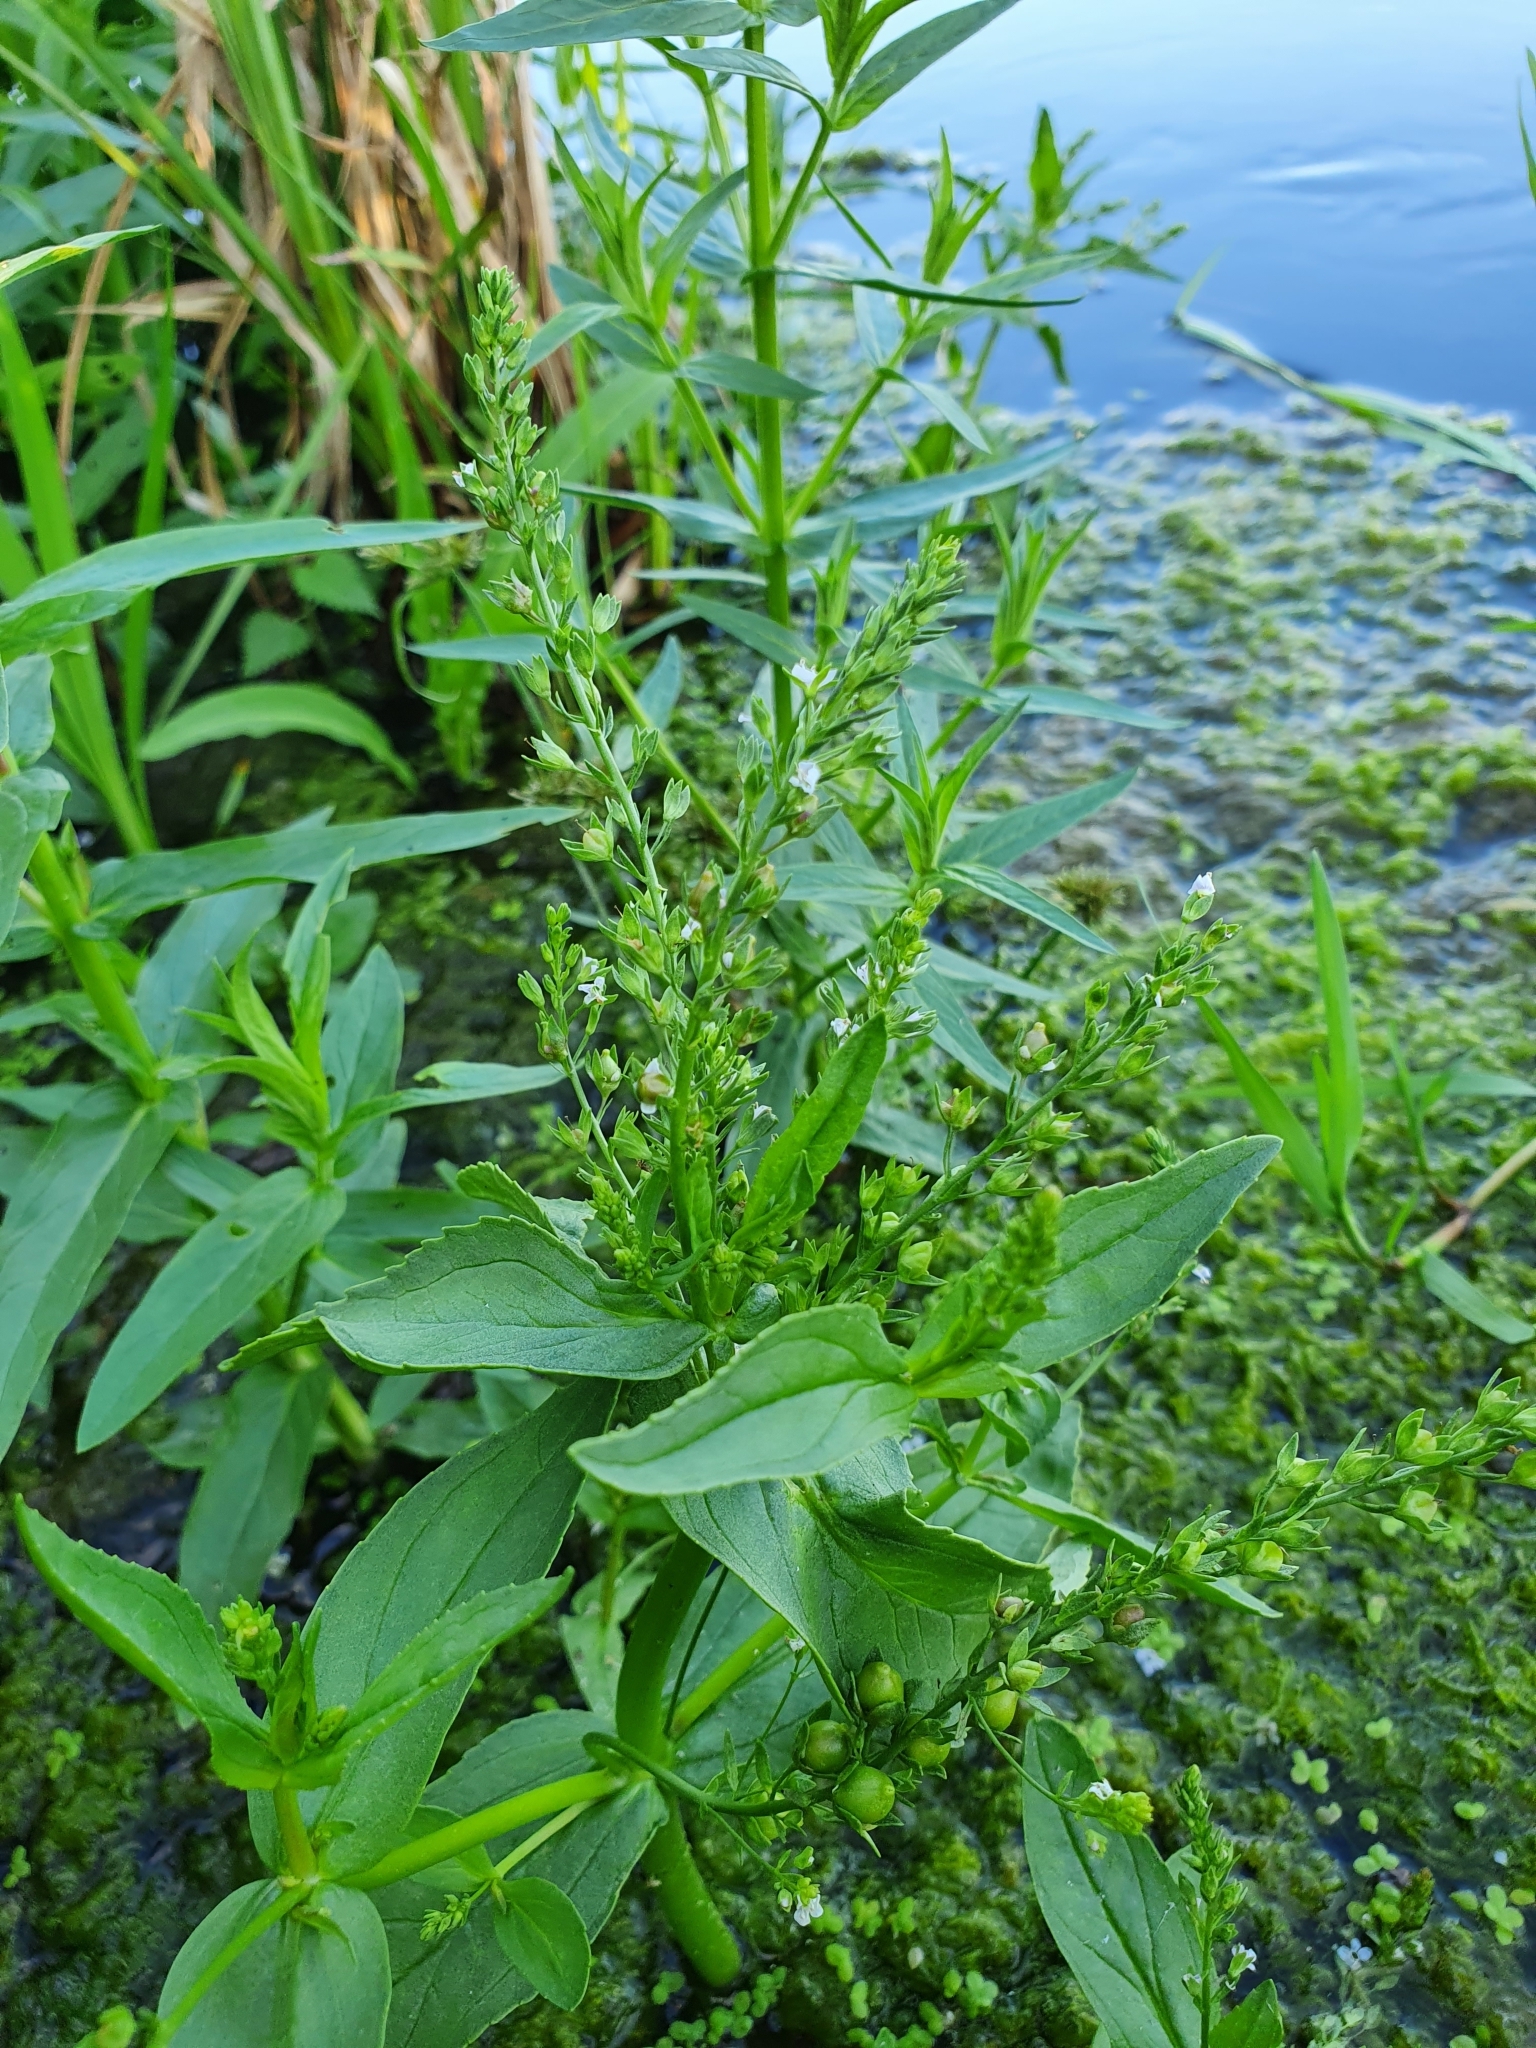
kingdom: Plantae
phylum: Tracheophyta
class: Magnoliopsida
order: Lamiales
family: Plantaginaceae
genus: Veronica
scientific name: Veronica anagallis-aquatica
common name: Water speedwell
